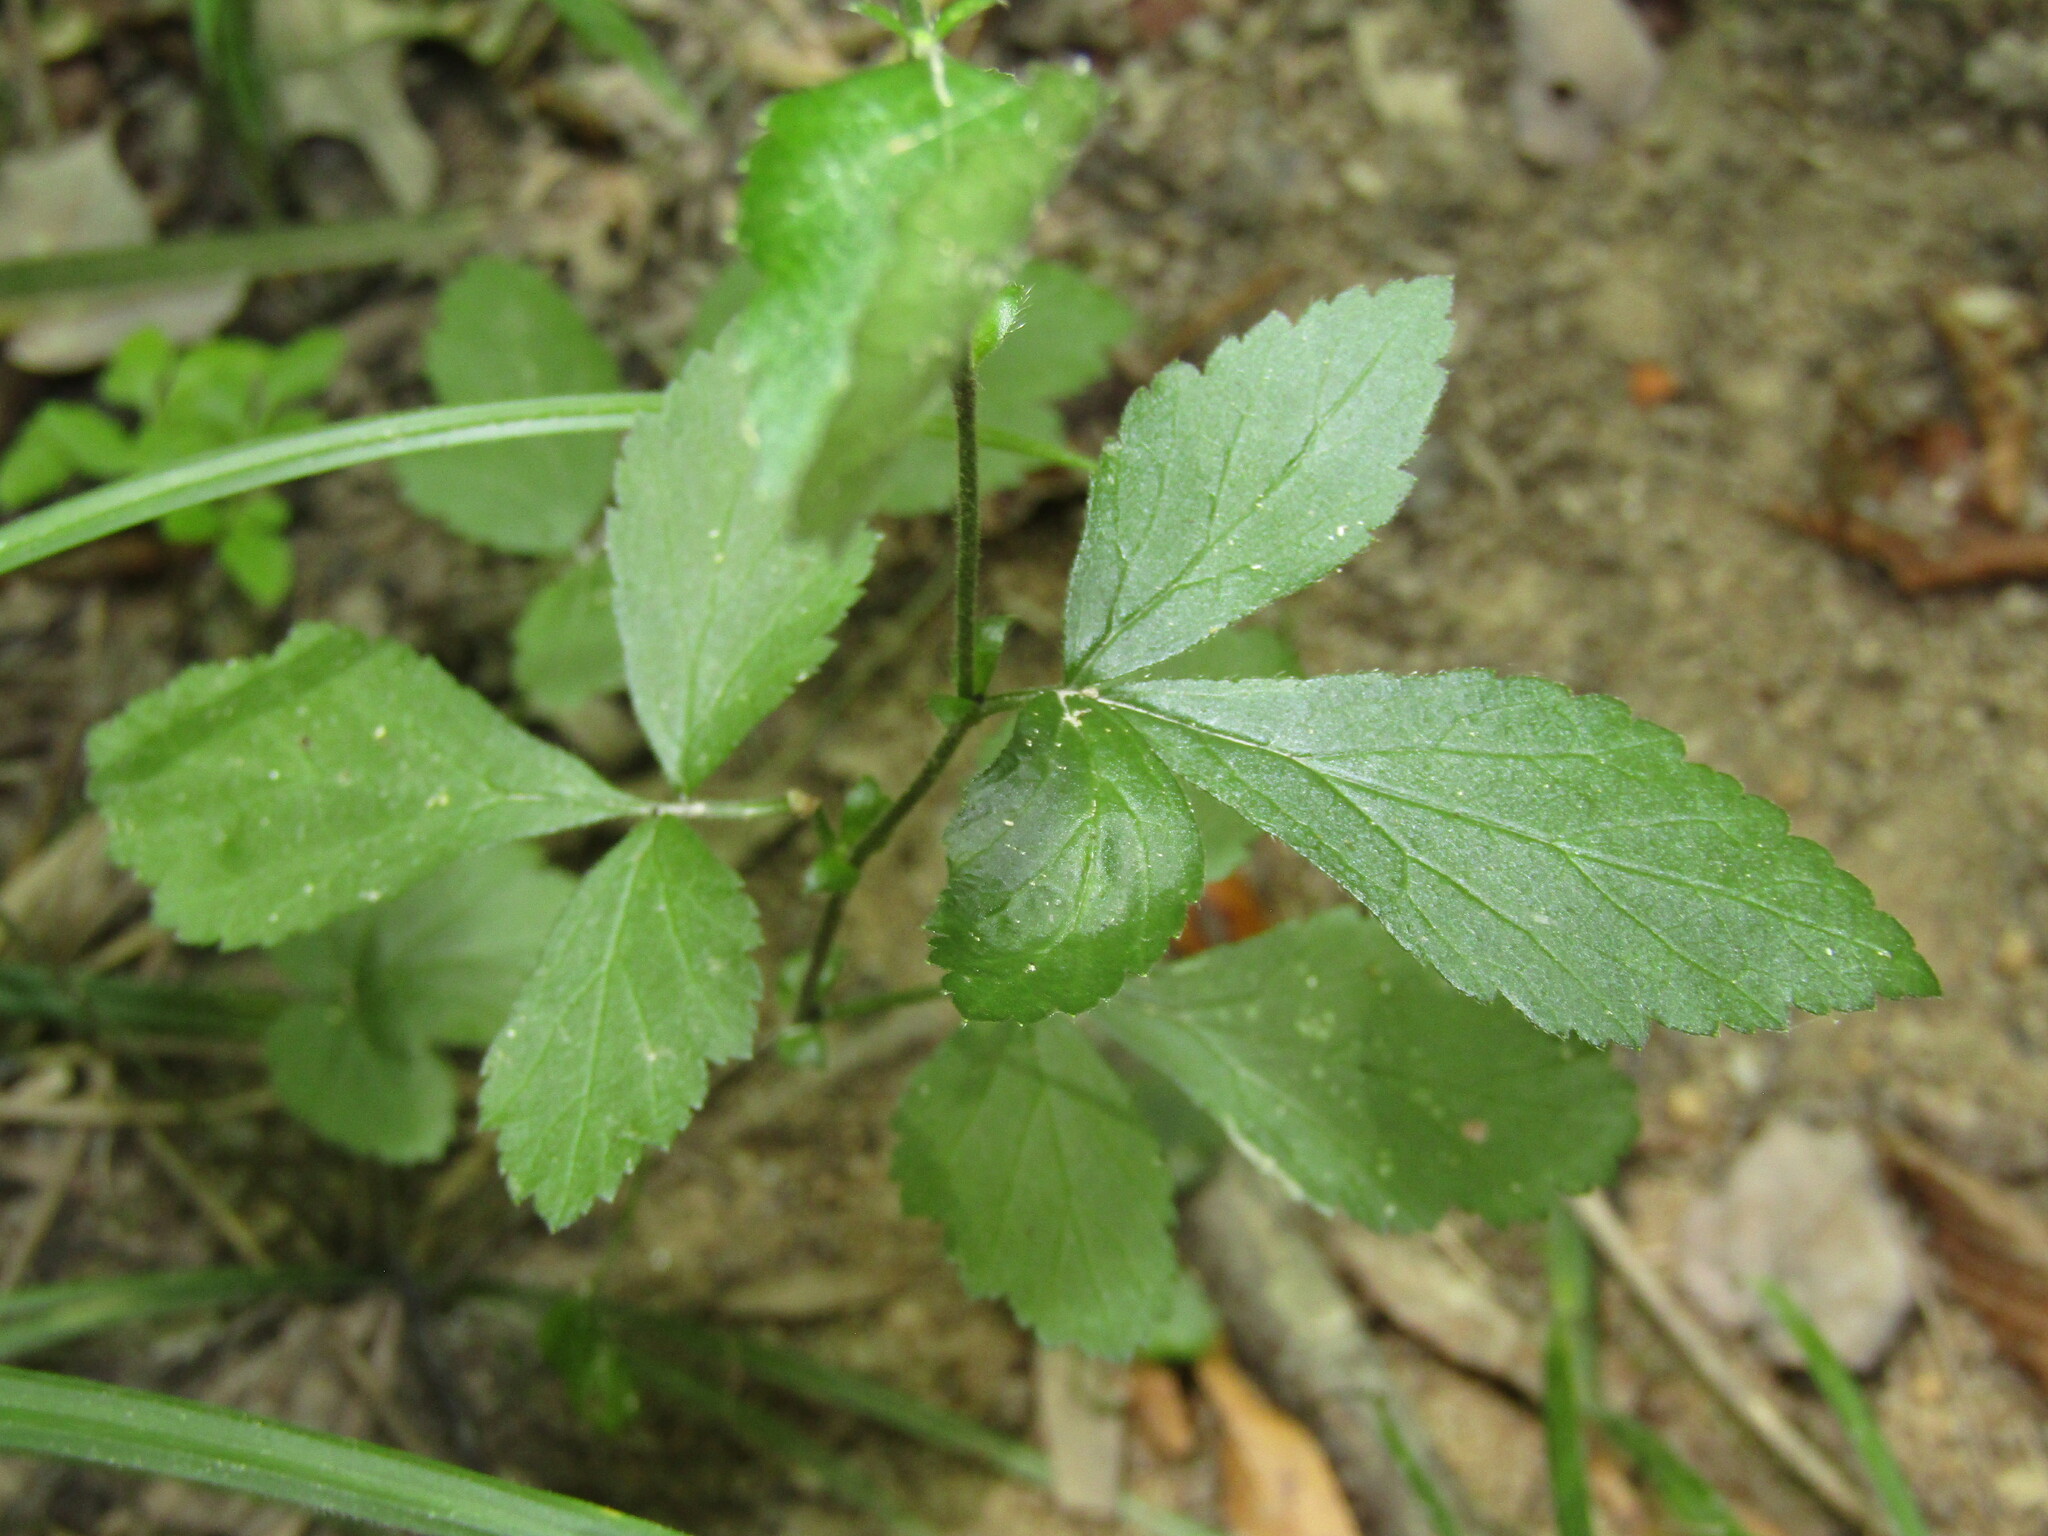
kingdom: Plantae
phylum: Tracheophyta
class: Magnoliopsida
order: Rosales
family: Rosaceae
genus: Geum
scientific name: Geum canadense
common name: White avens
